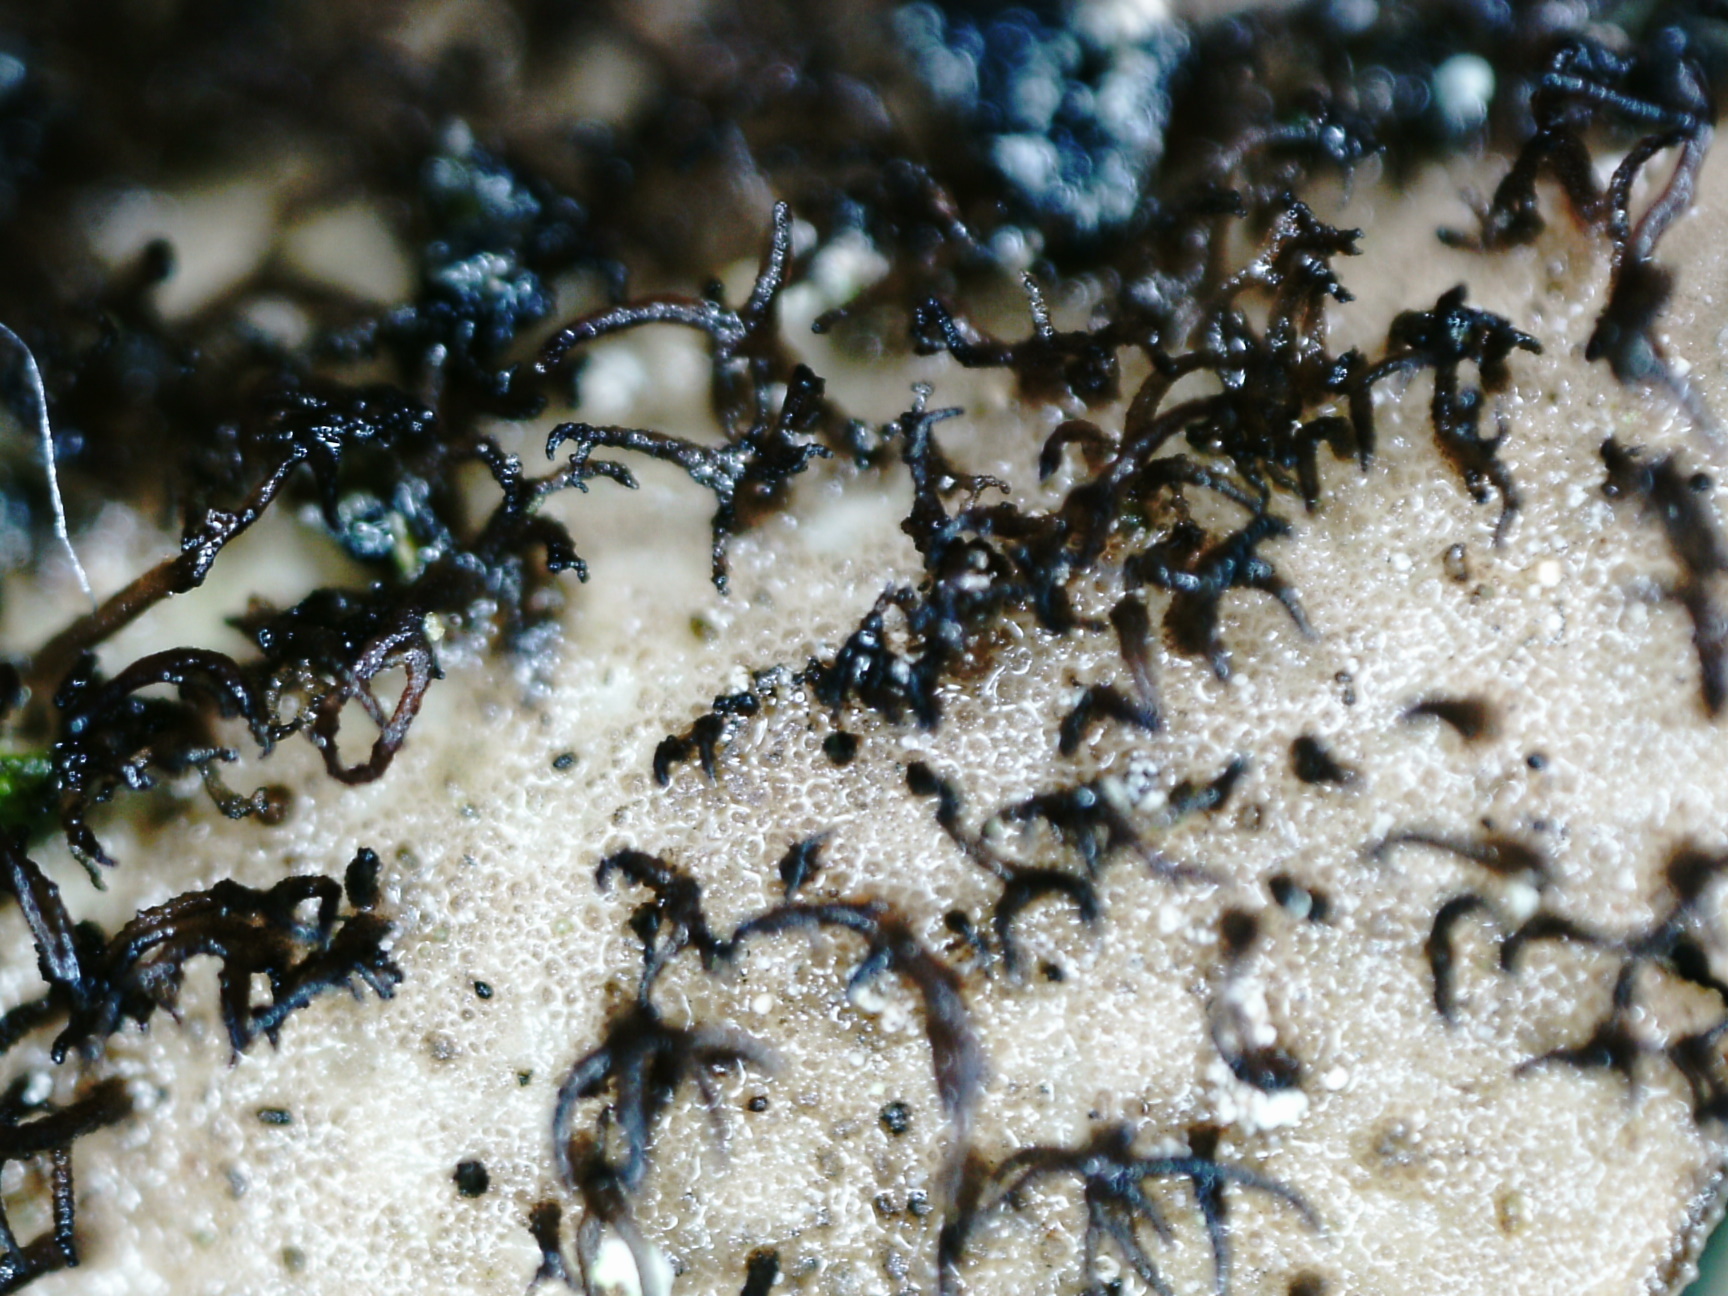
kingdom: Fungi
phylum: Ascomycota
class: Lecanoromycetes
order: Umbilicariales
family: Umbilicariaceae
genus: Umbilicaria
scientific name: Umbilicaria vellea
